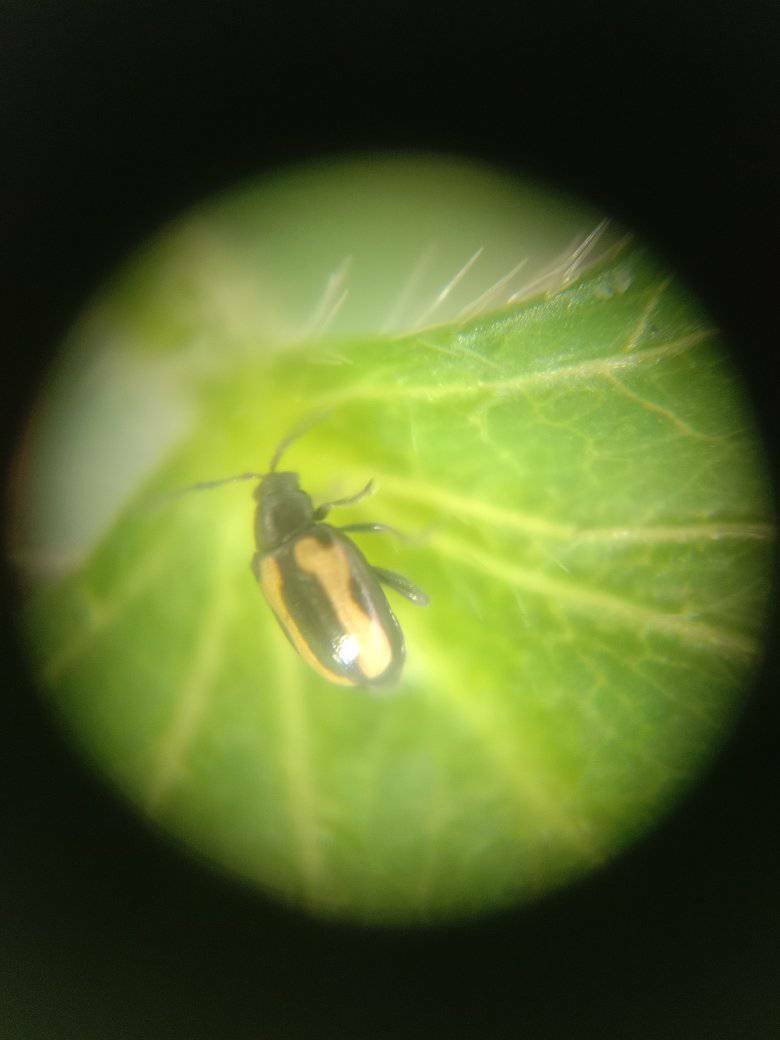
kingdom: Animalia
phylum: Arthropoda
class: Insecta
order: Coleoptera
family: Chrysomelidae
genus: Phyllotreta
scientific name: Phyllotreta striolata
